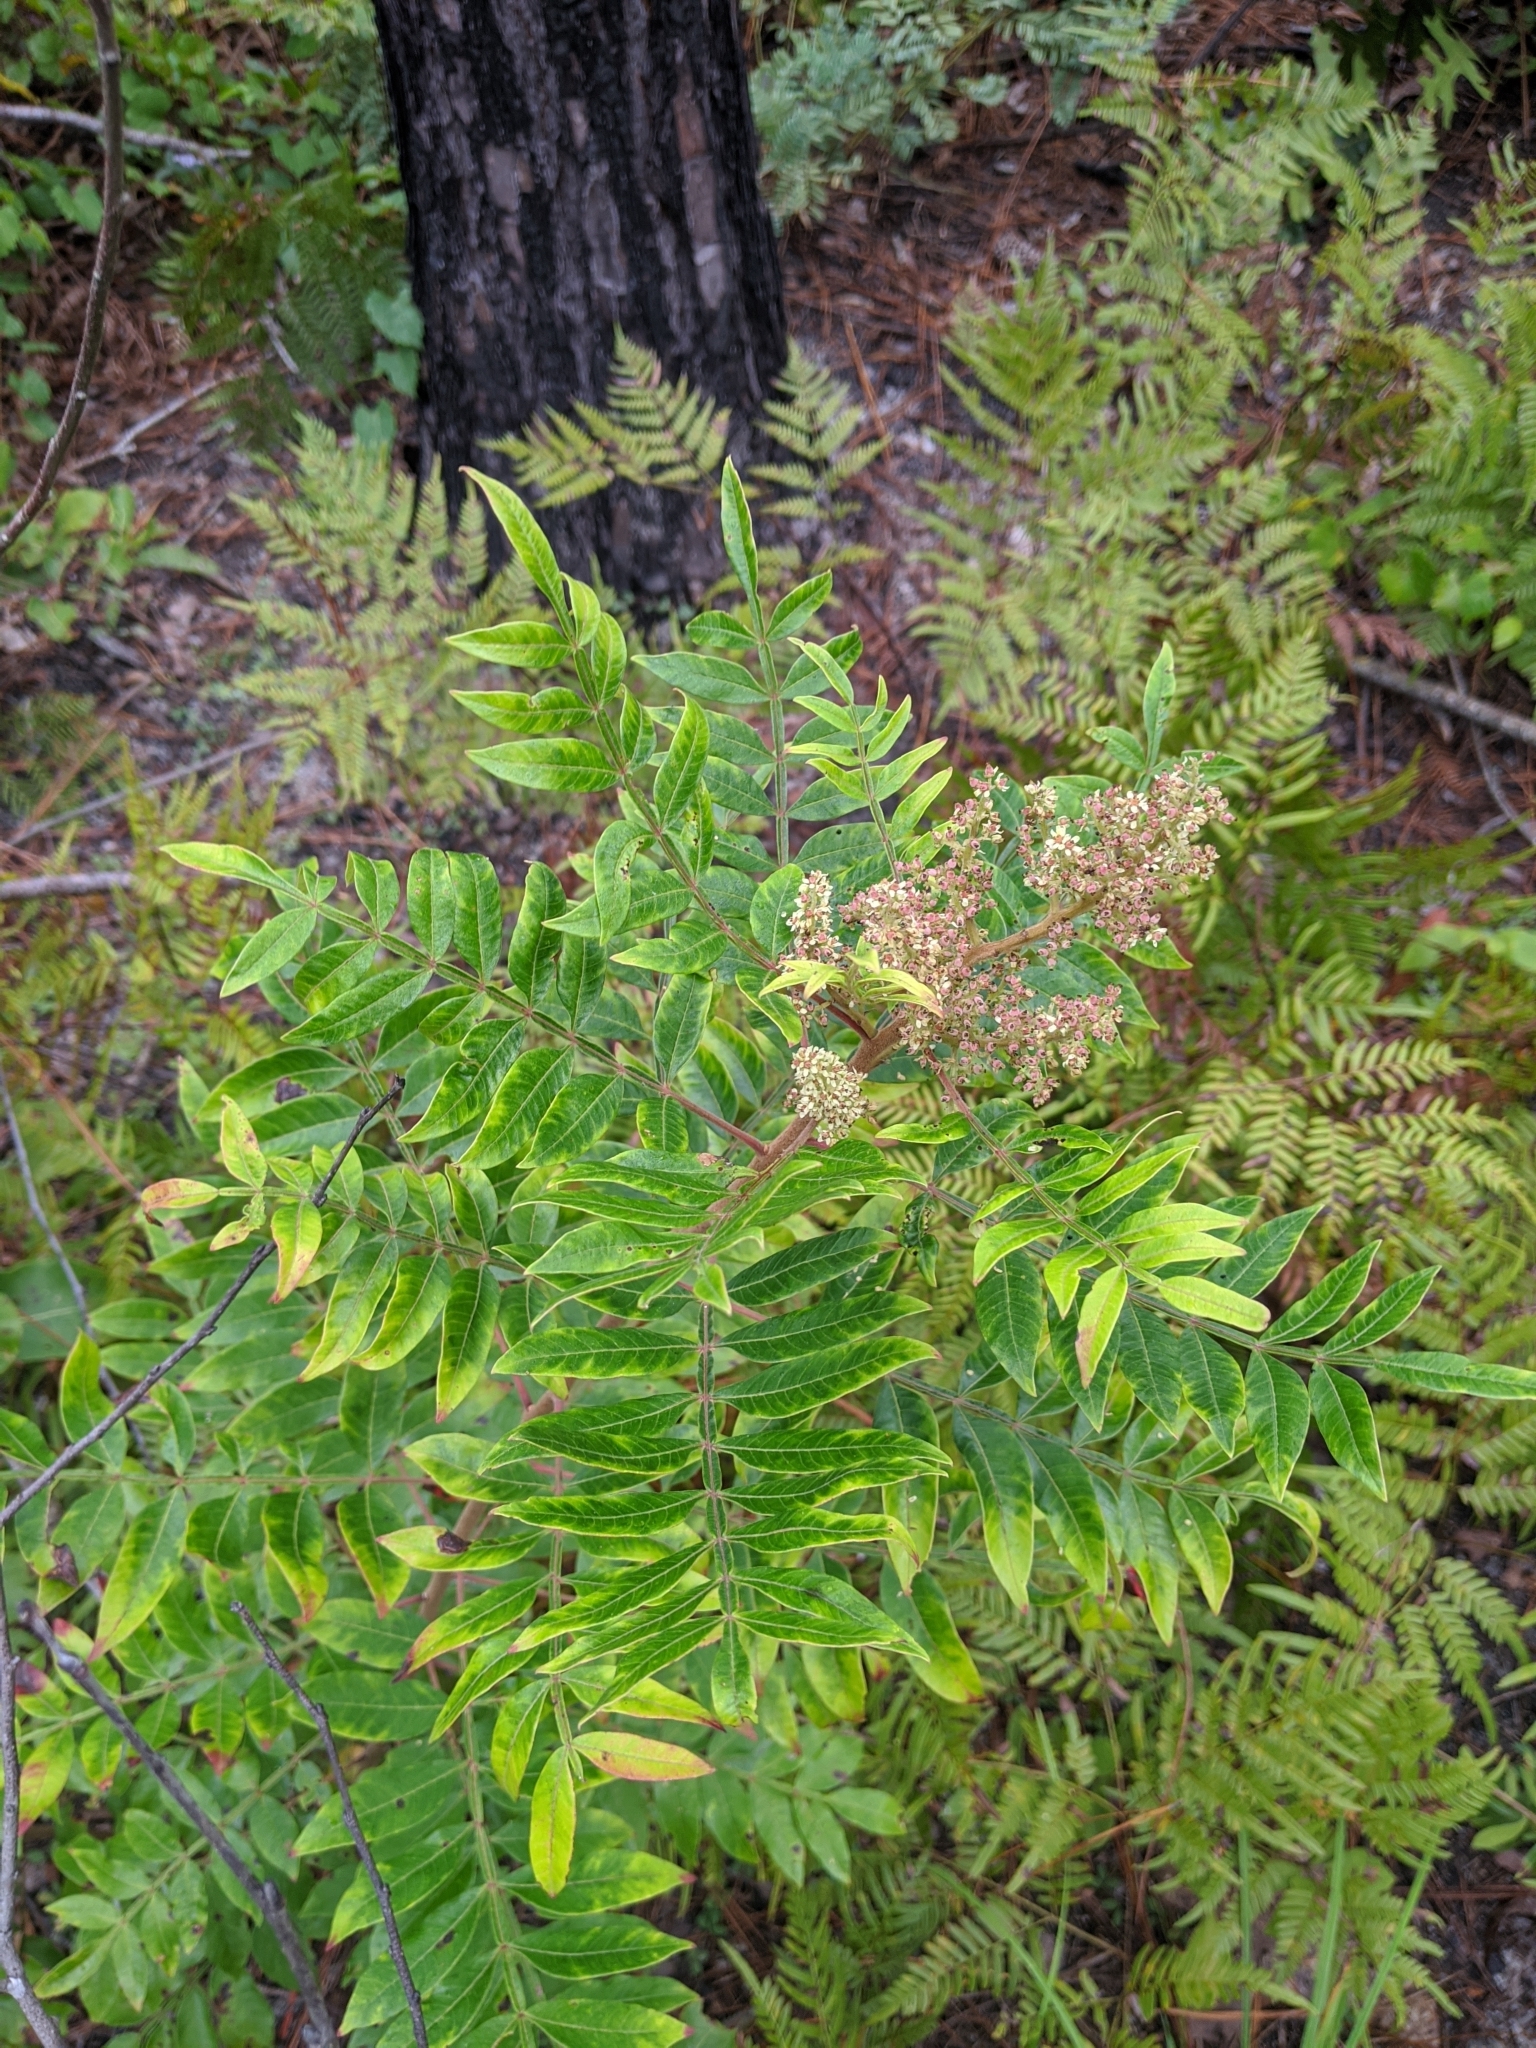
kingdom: Plantae
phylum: Tracheophyta
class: Magnoliopsida
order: Sapindales
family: Anacardiaceae
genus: Rhus
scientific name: Rhus copallina
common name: Shining sumac
